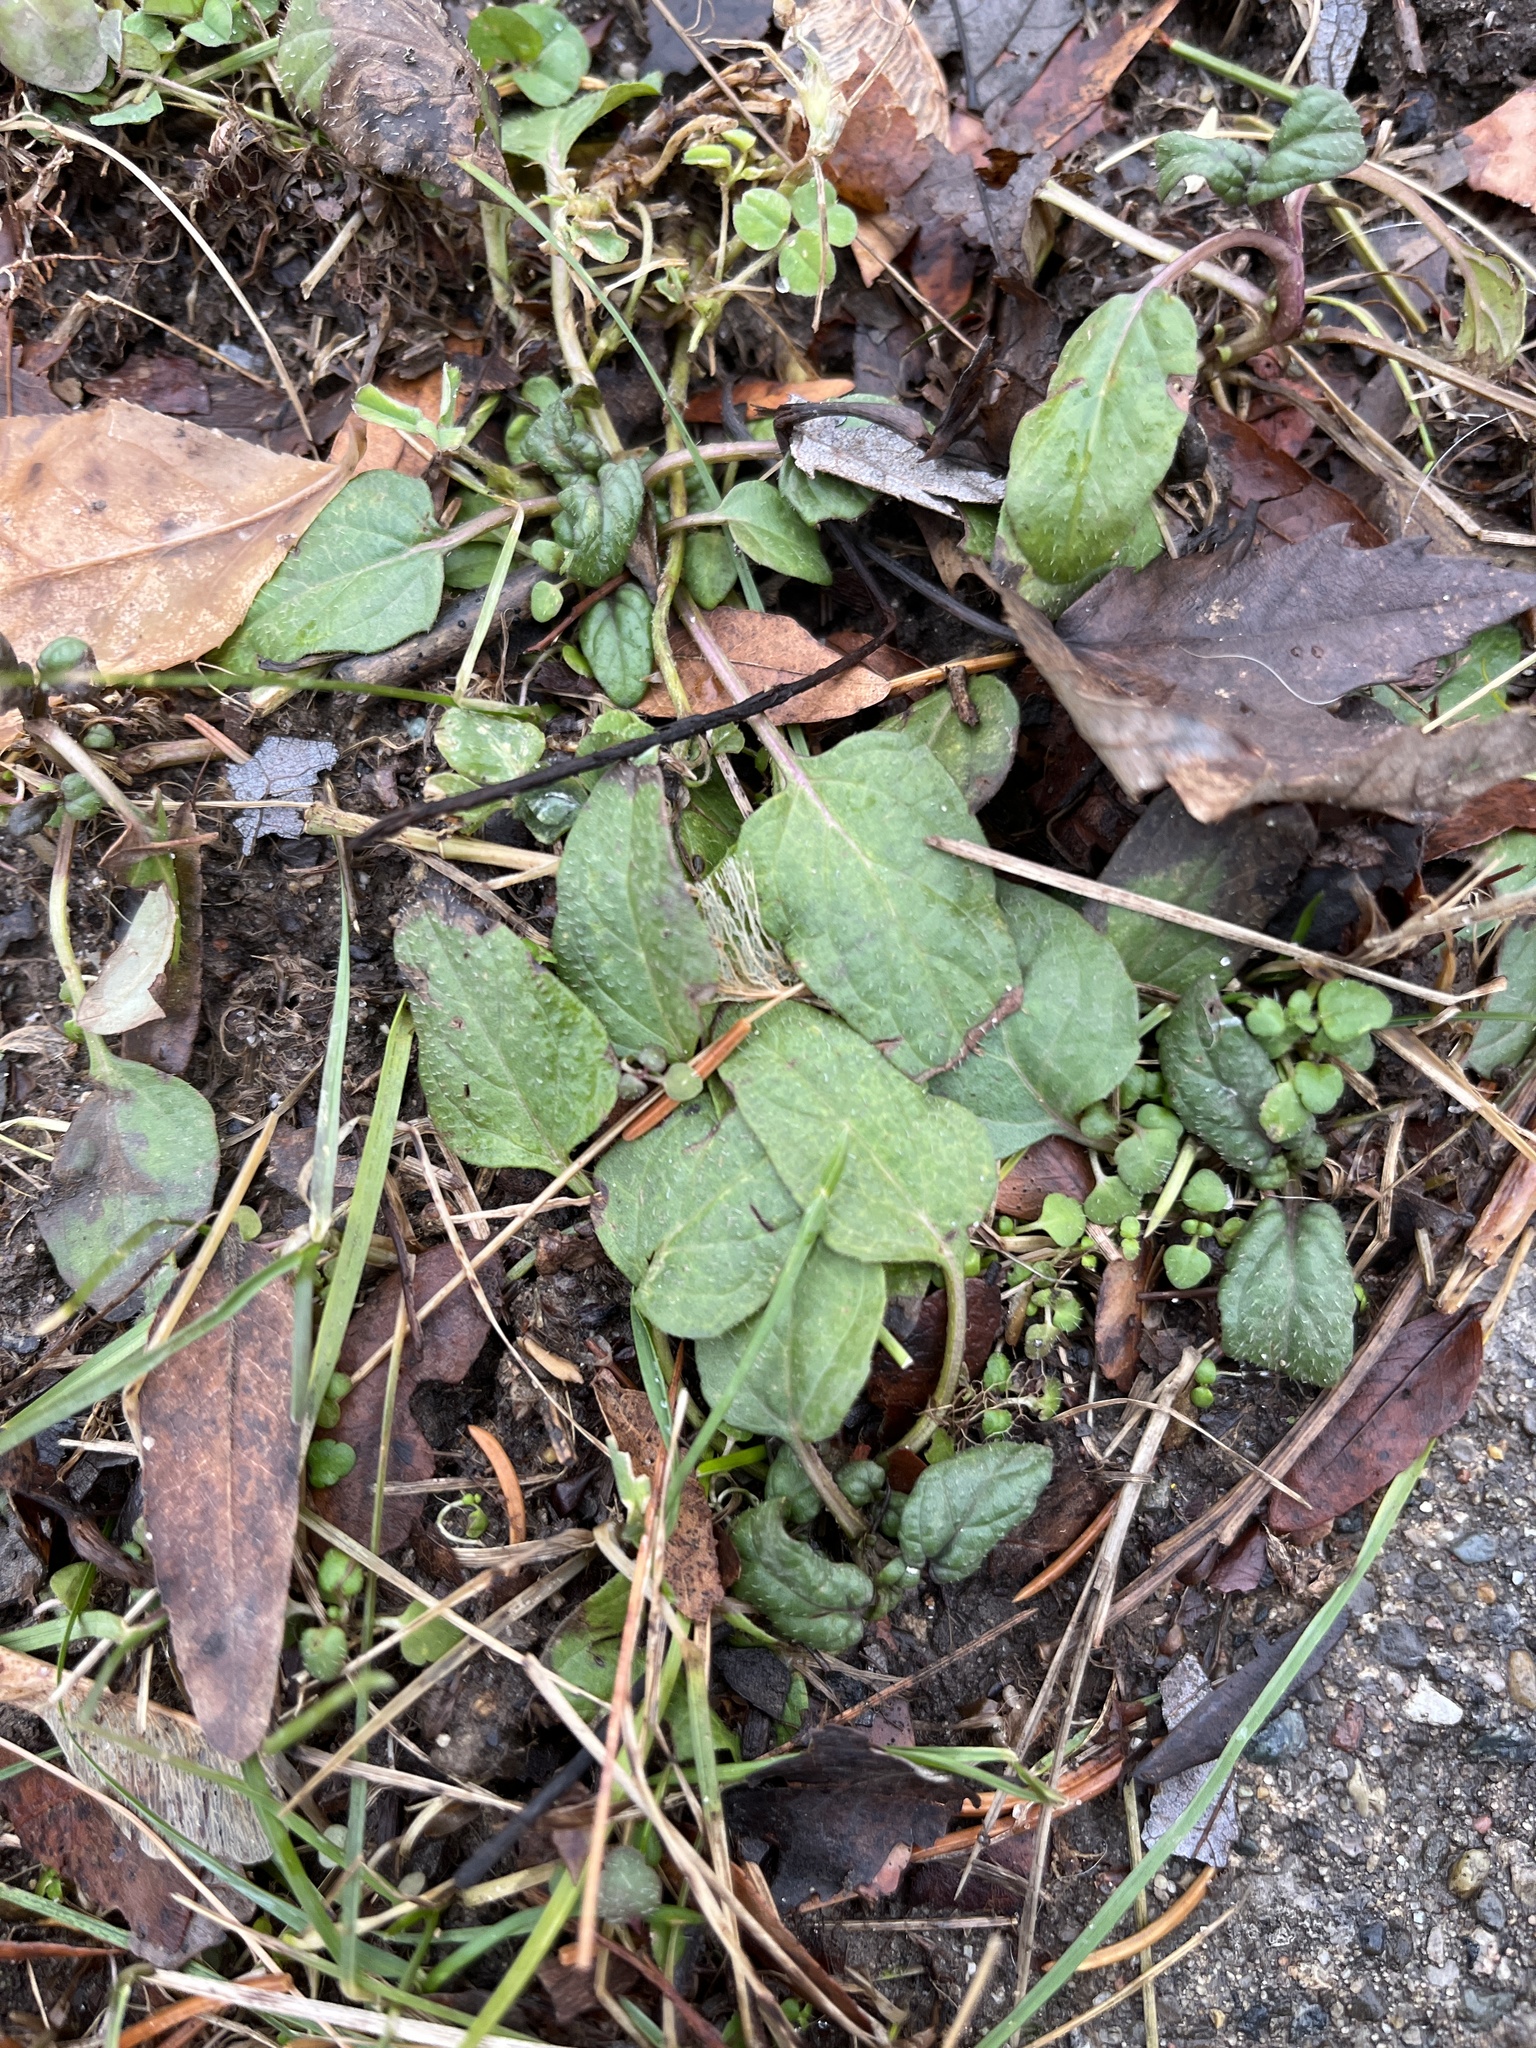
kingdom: Plantae
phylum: Tracheophyta
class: Magnoliopsida
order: Lamiales
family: Lamiaceae
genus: Prunella
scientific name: Prunella vulgaris
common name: Heal-all
